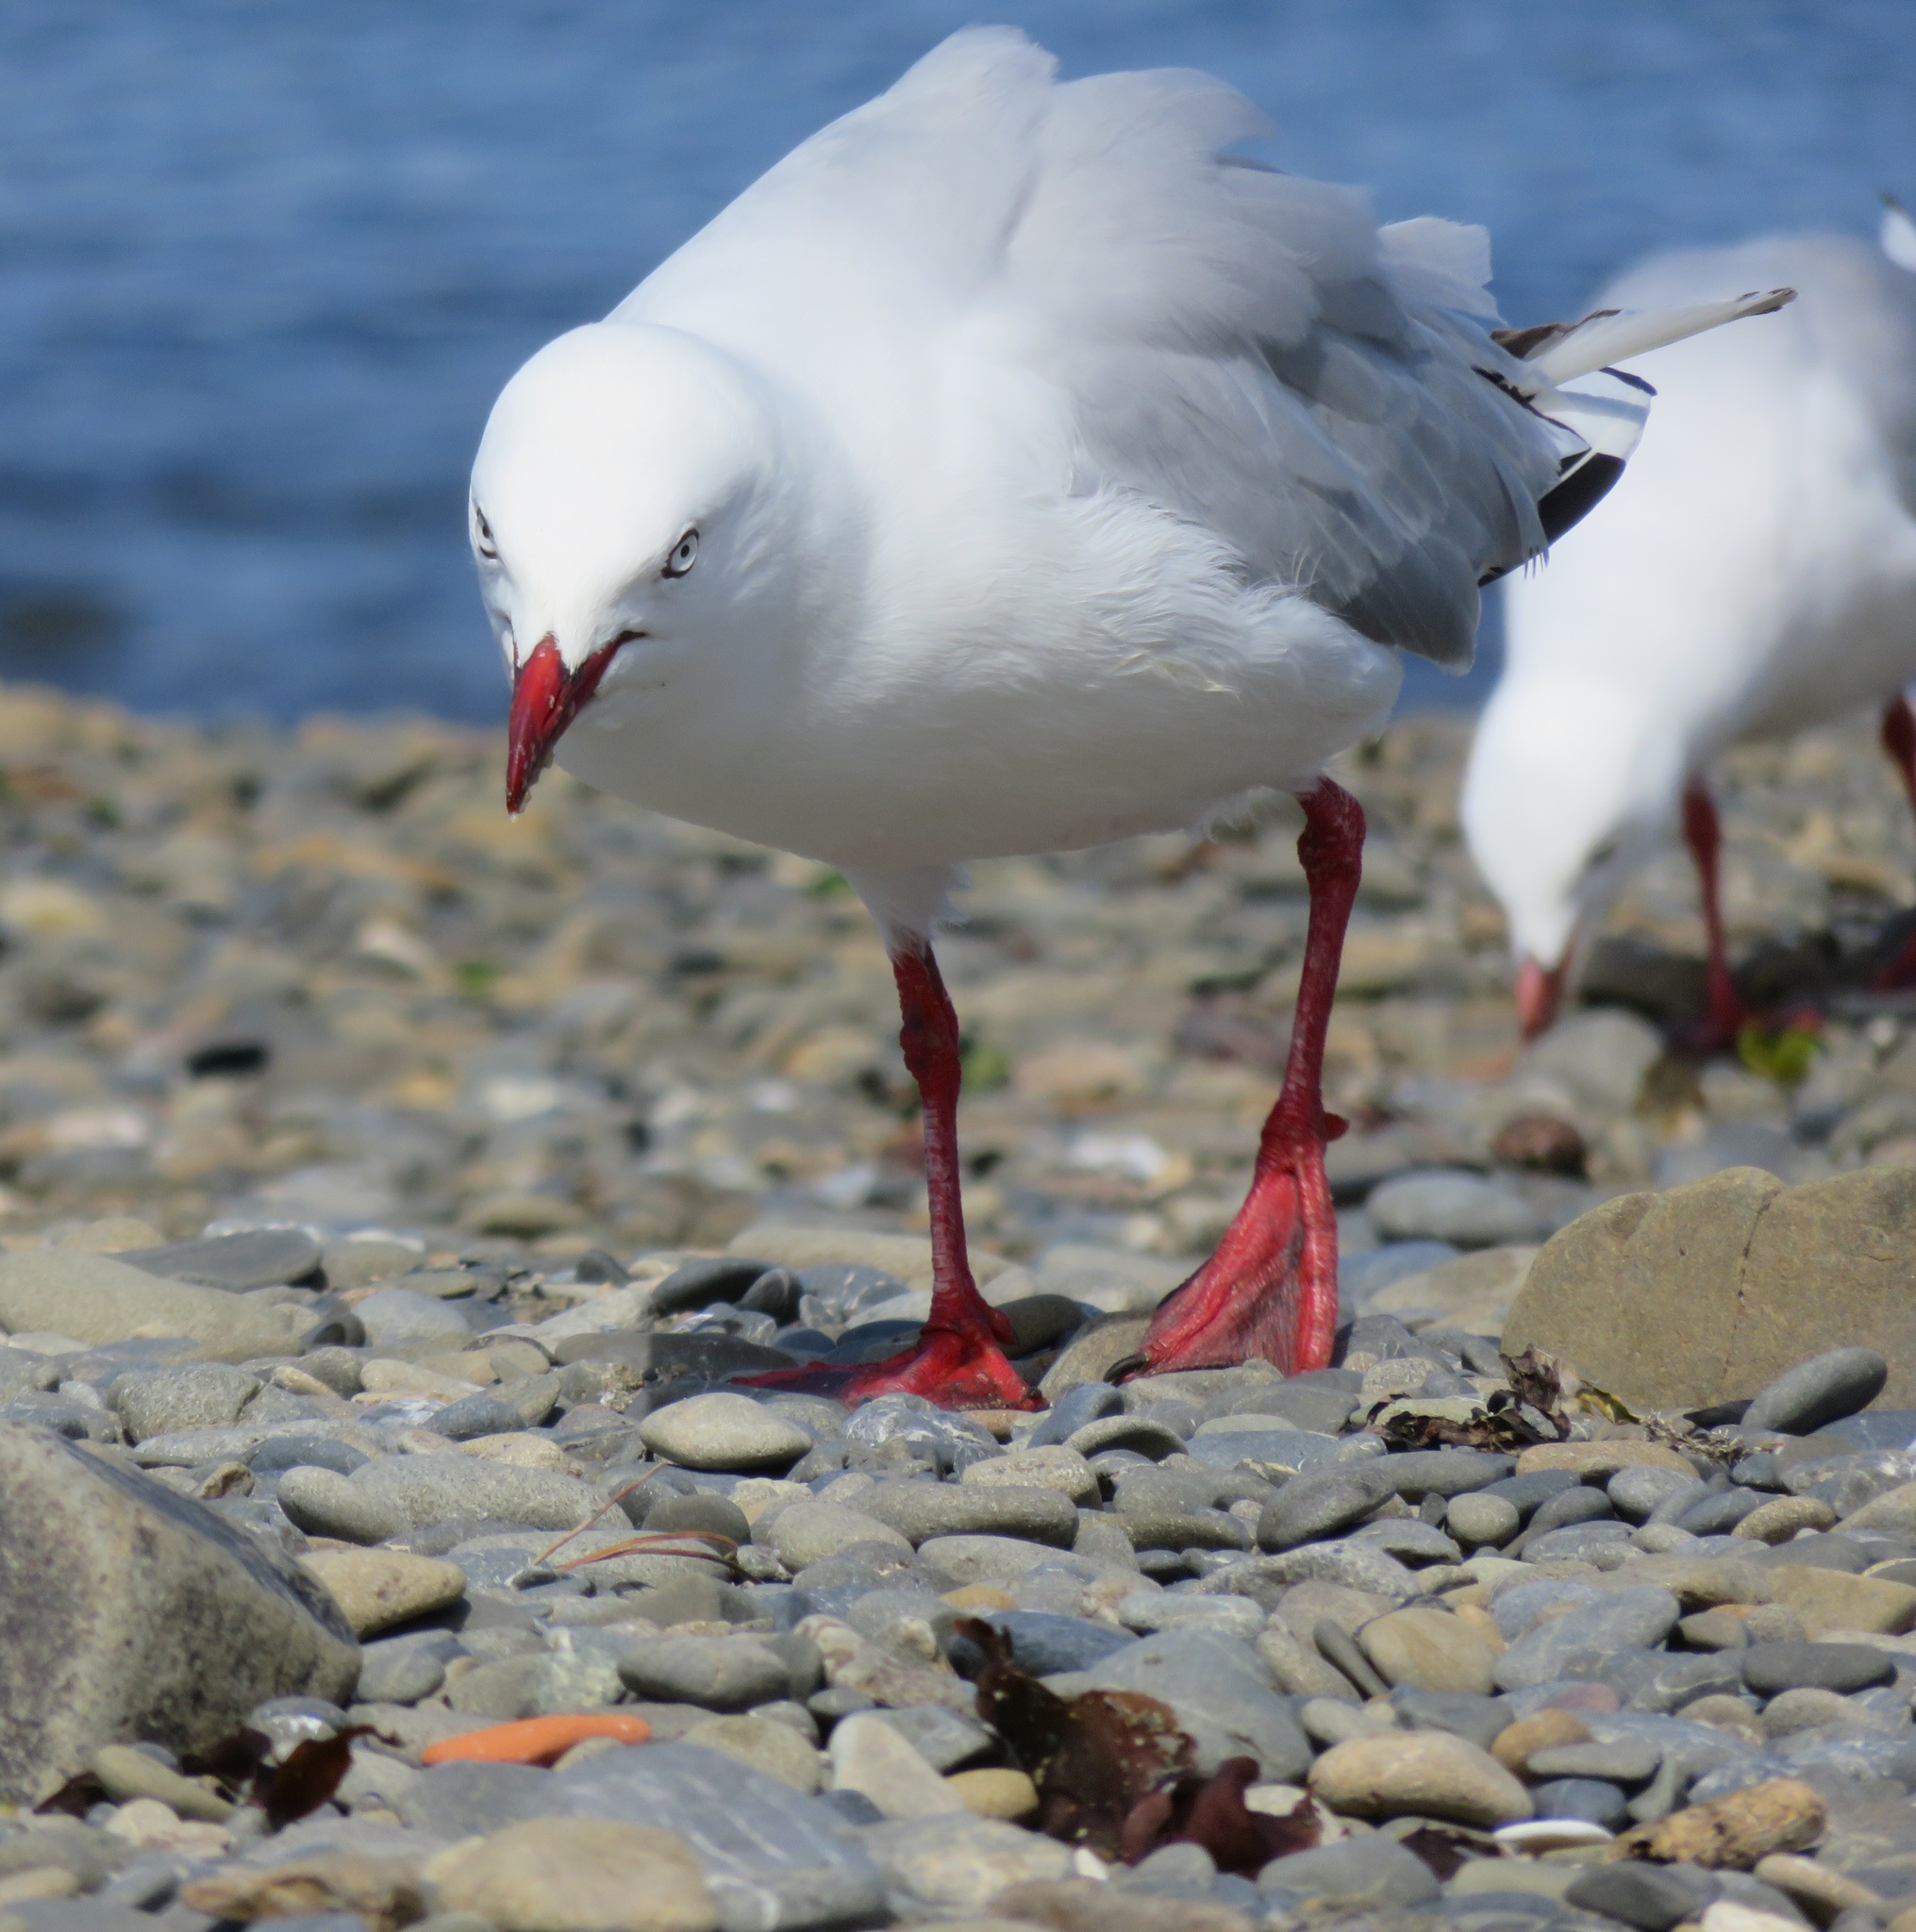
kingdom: Animalia
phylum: Chordata
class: Aves
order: Charadriiformes
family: Laridae
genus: Chroicocephalus
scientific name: Chroicocephalus novaehollandiae
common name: Silver gull
